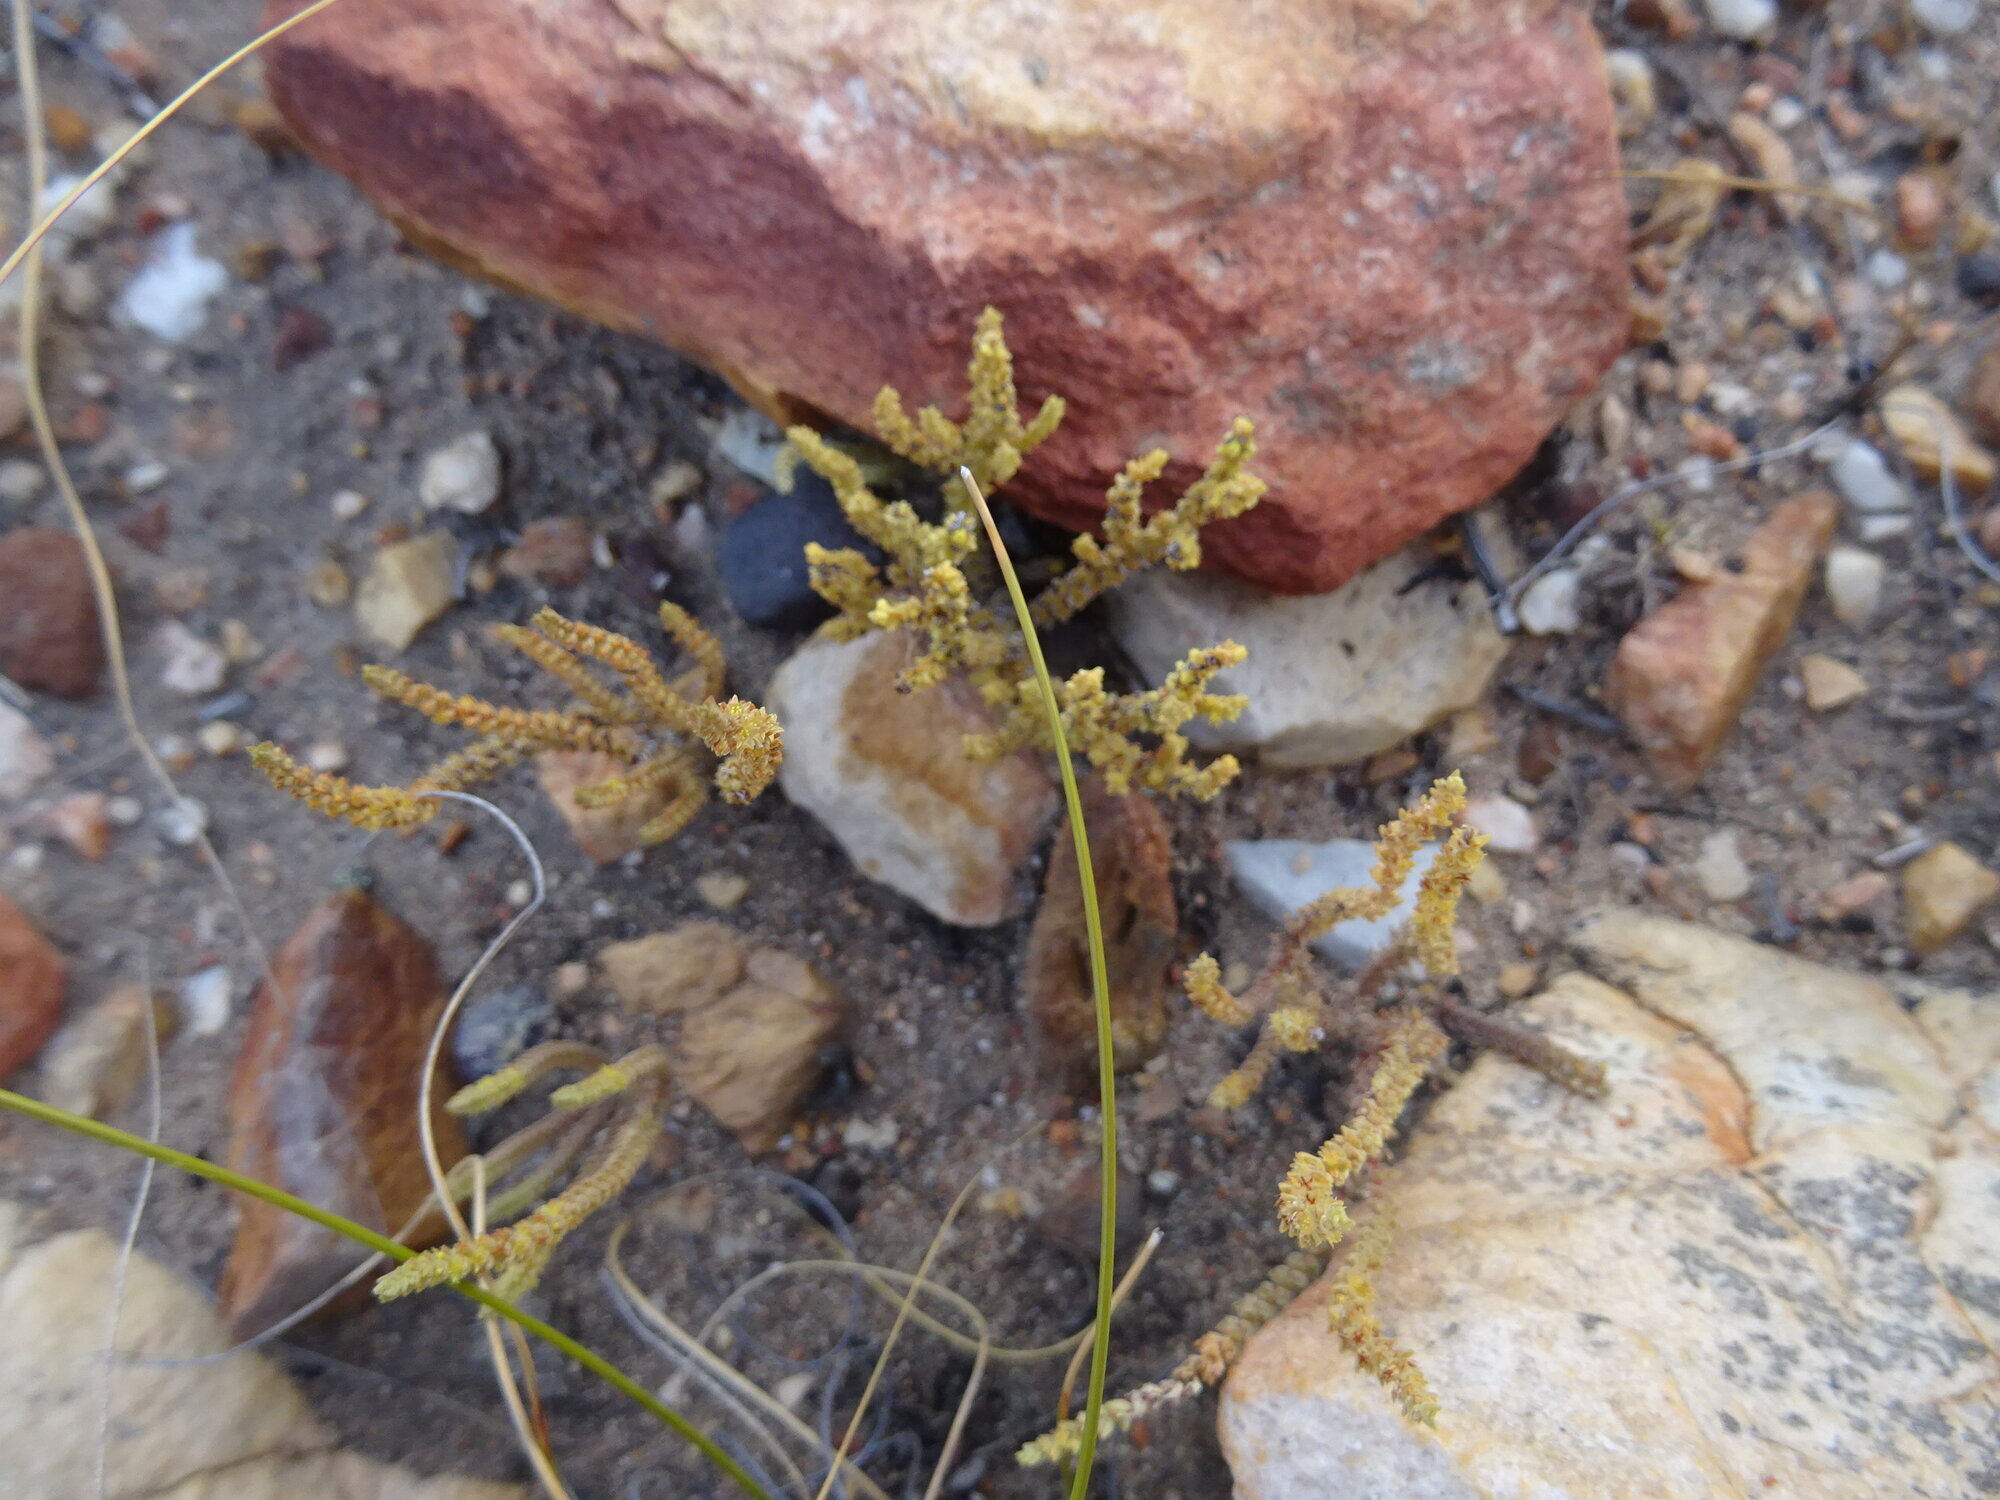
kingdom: Plantae
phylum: Tracheophyta
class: Magnoliopsida
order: Saxifragales
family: Crassulaceae
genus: Crassula
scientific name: Crassula muscosa
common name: Toy-cypress
